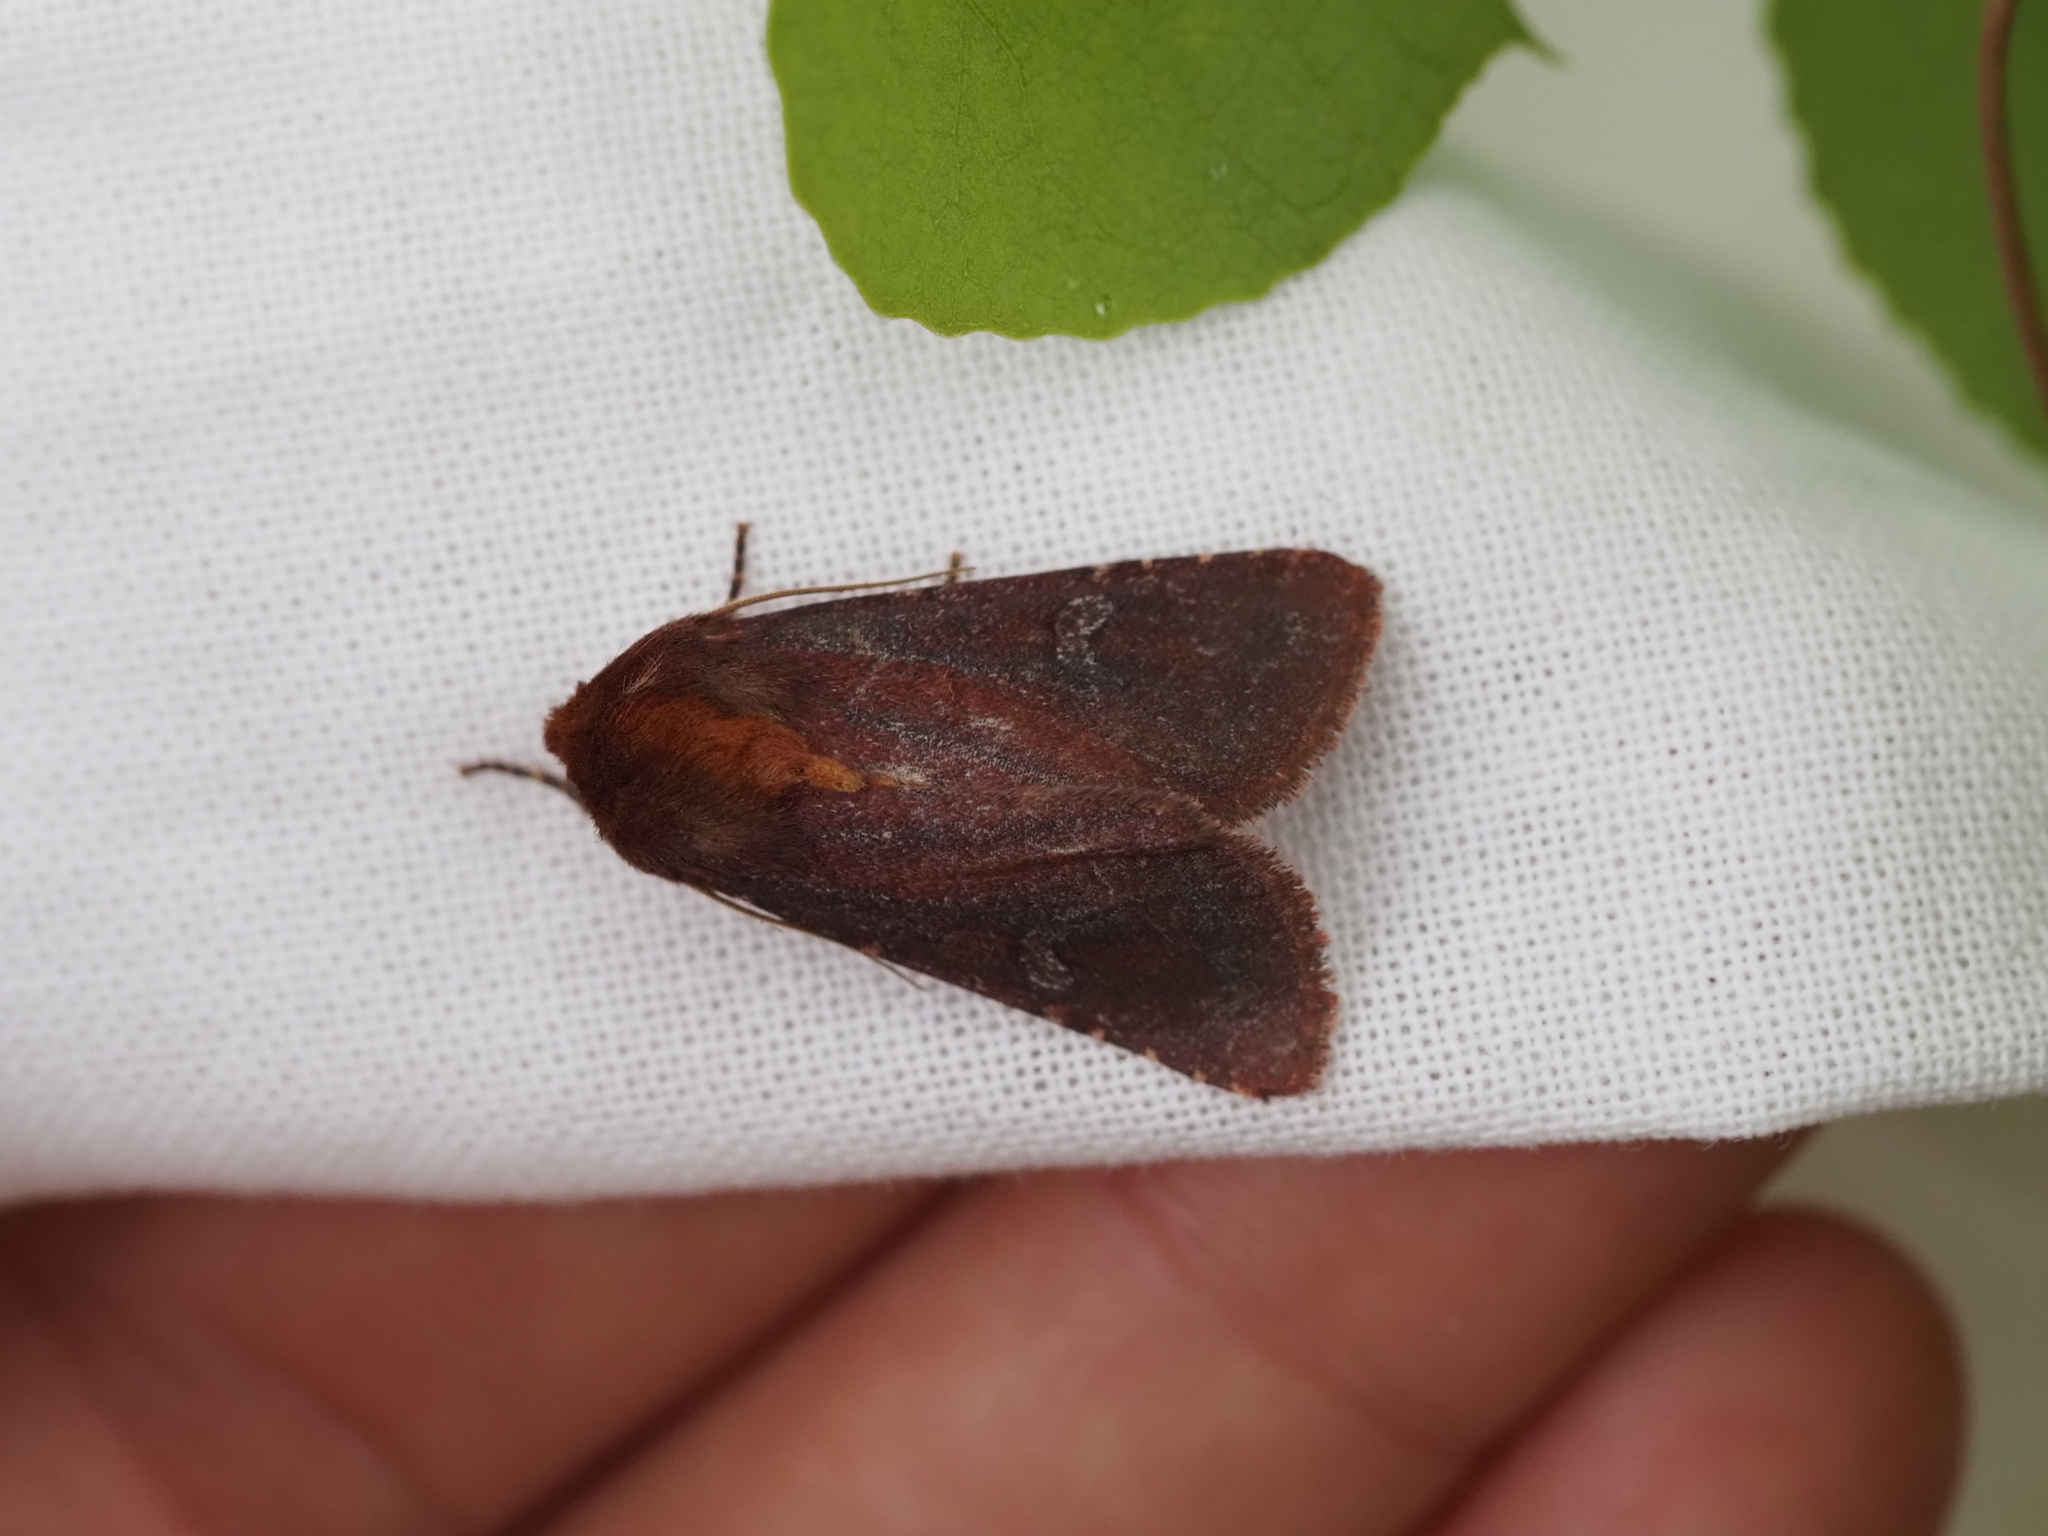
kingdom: Animalia
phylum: Arthropoda
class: Insecta
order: Lepidoptera
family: Noctuidae
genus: Sideridis
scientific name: Sideridis maryx
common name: Maroonwing moth
